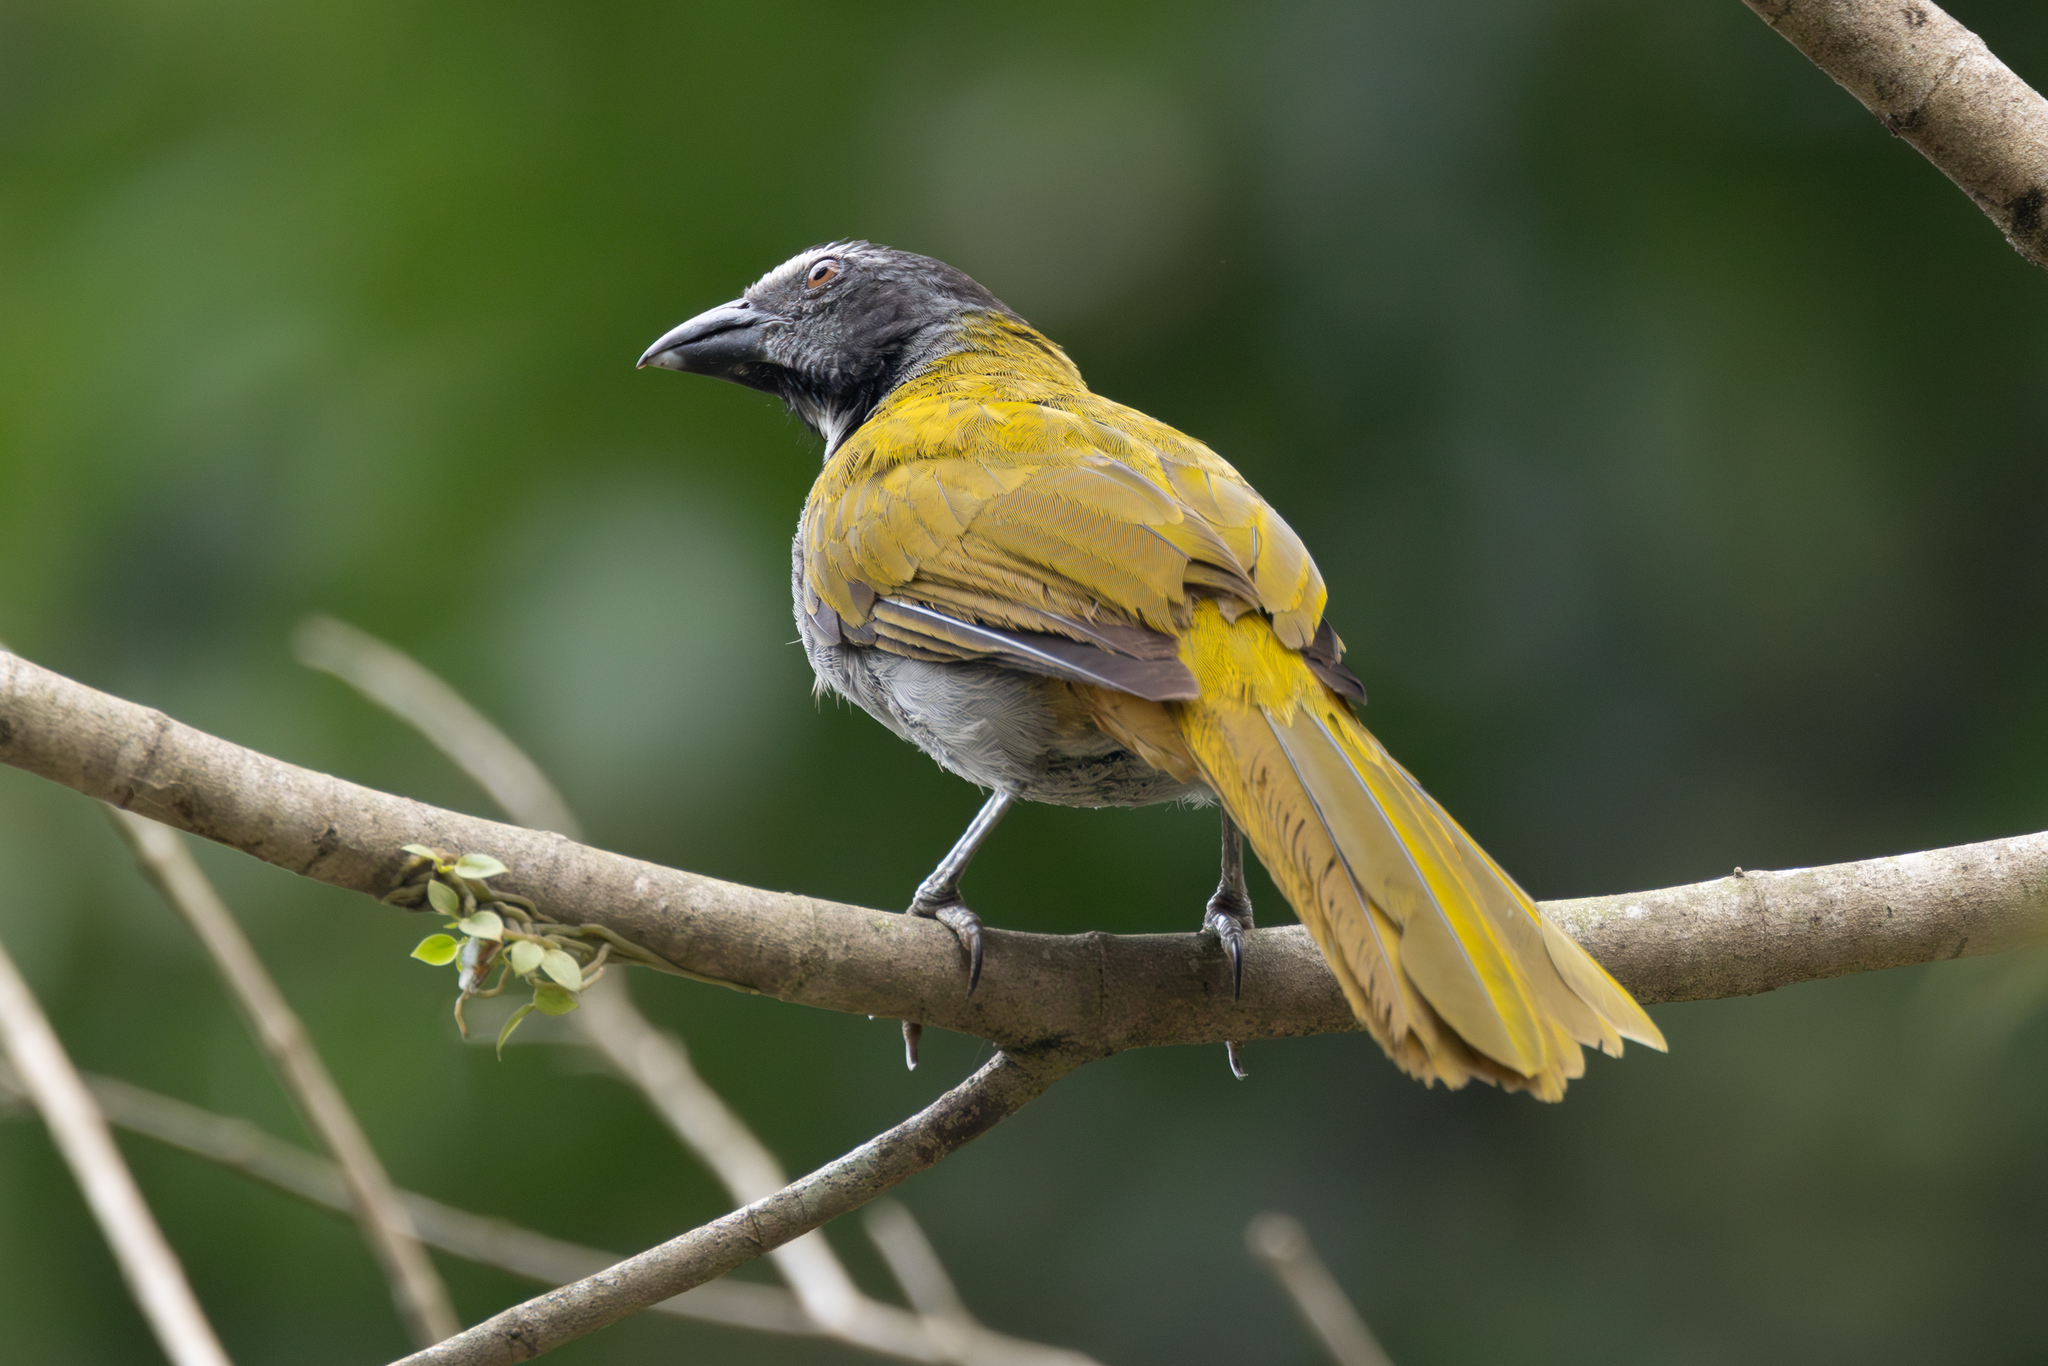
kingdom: Animalia
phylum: Chordata
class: Aves
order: Passeriformes
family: Thraupidae
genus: Saltator
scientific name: Saltator atriceps
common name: Black-headed saltator
